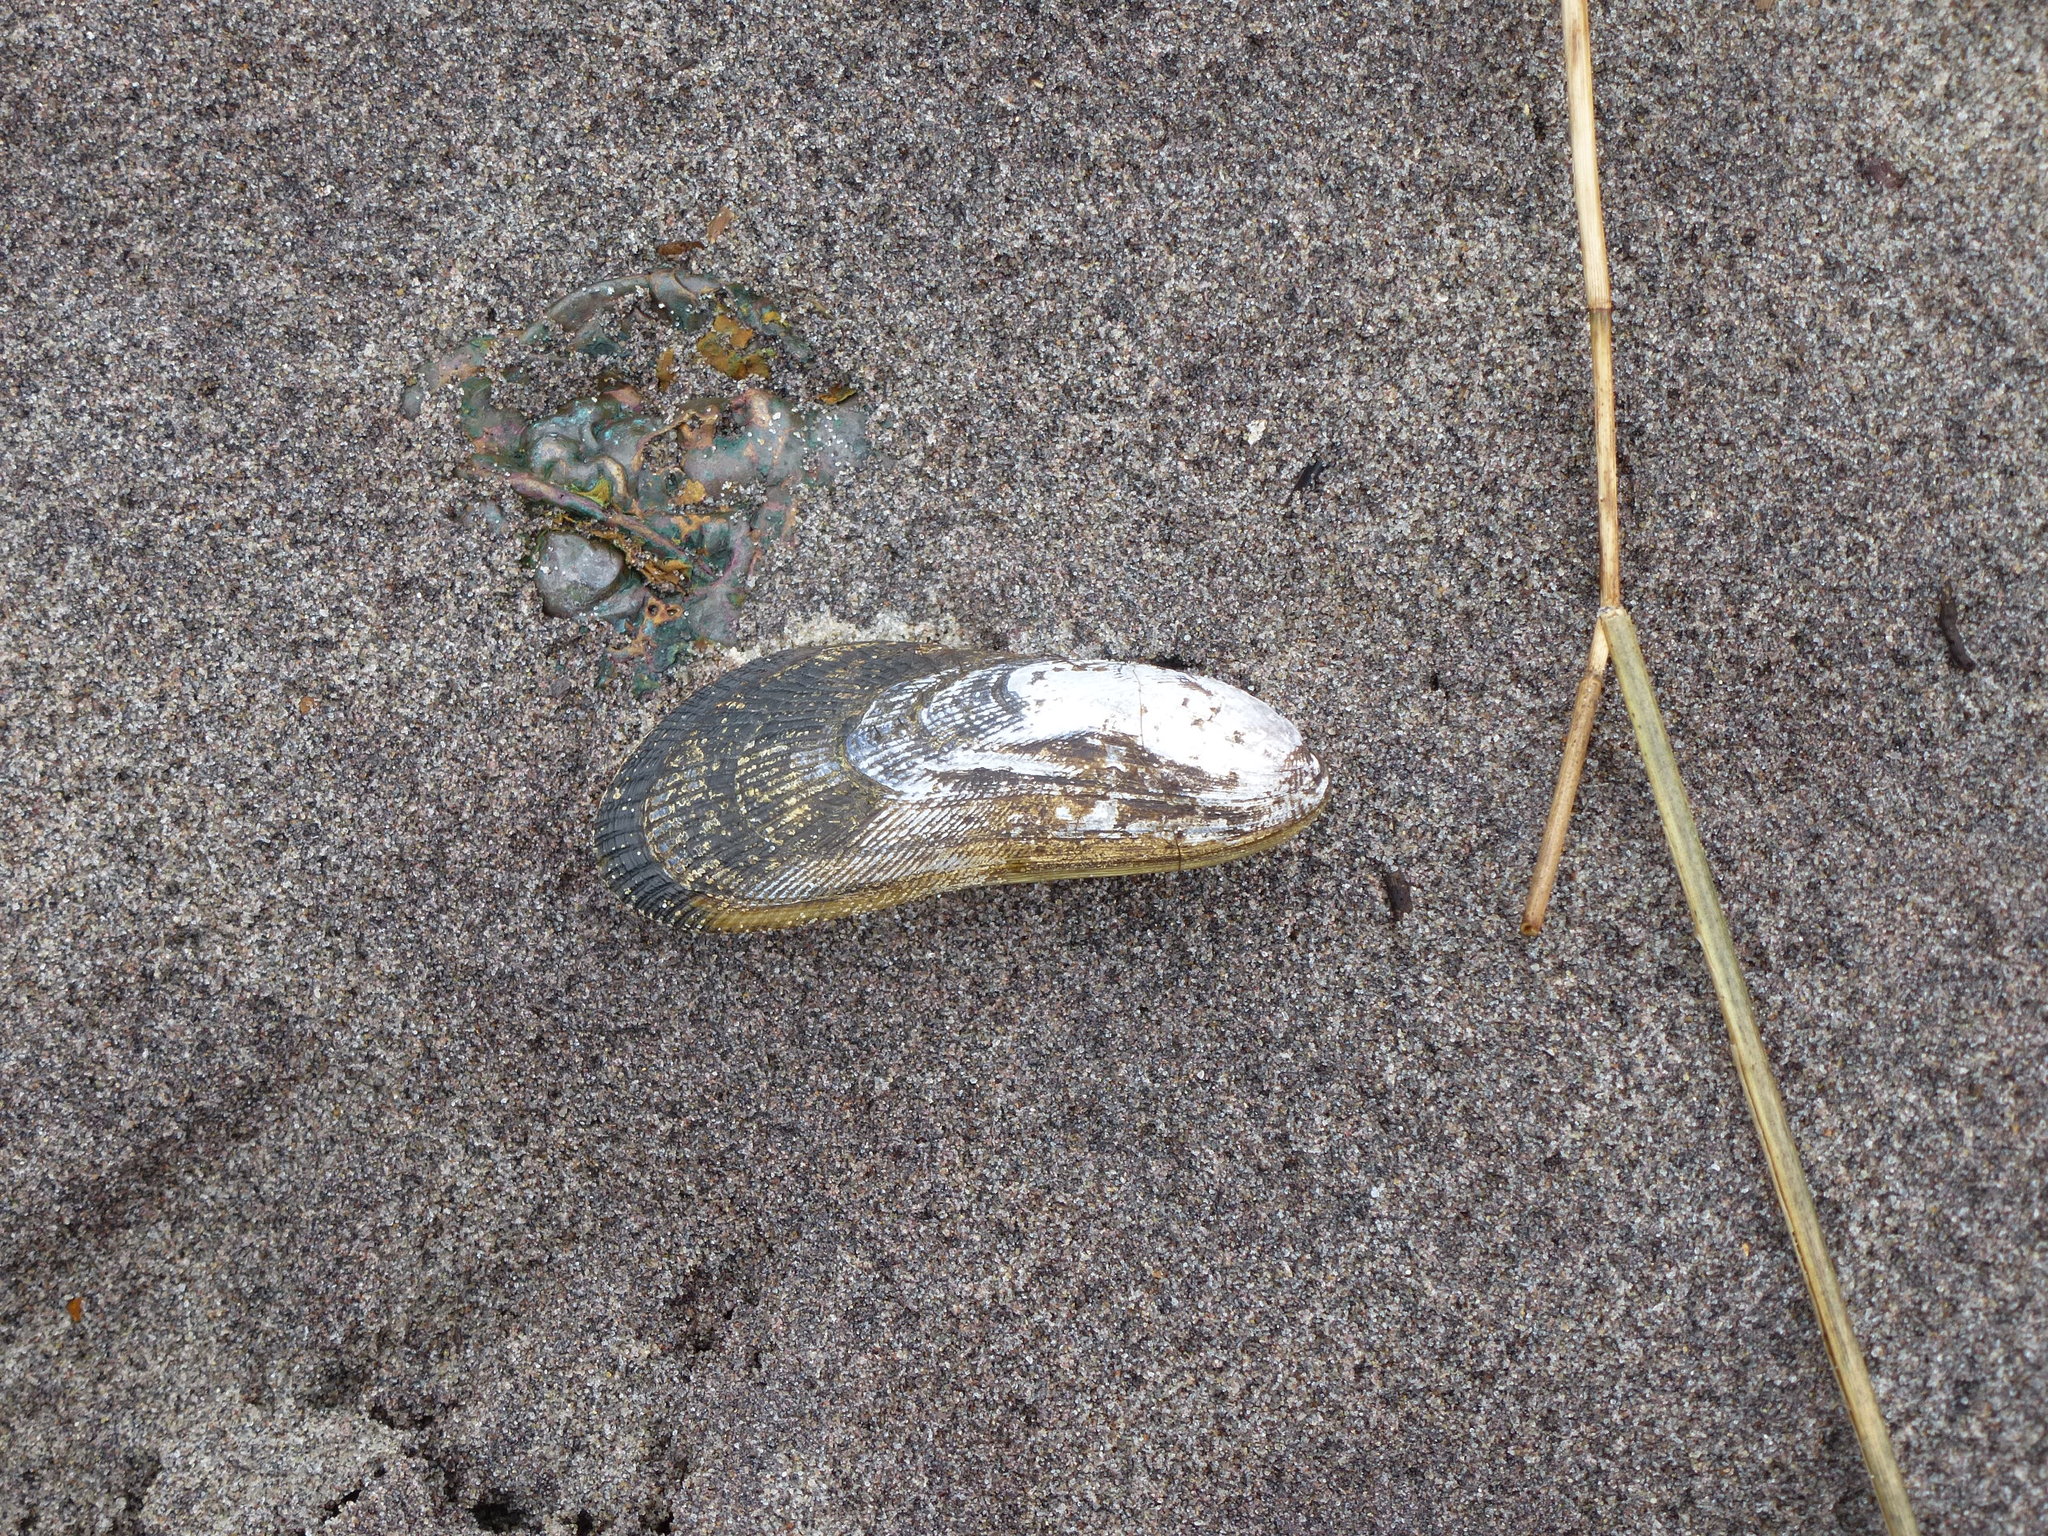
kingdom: Animalia
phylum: Mollusca
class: Bivalvia
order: Mytilida
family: Mytilidae
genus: Geukensia
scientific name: Geukensia demissa
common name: Ribbed mussel
